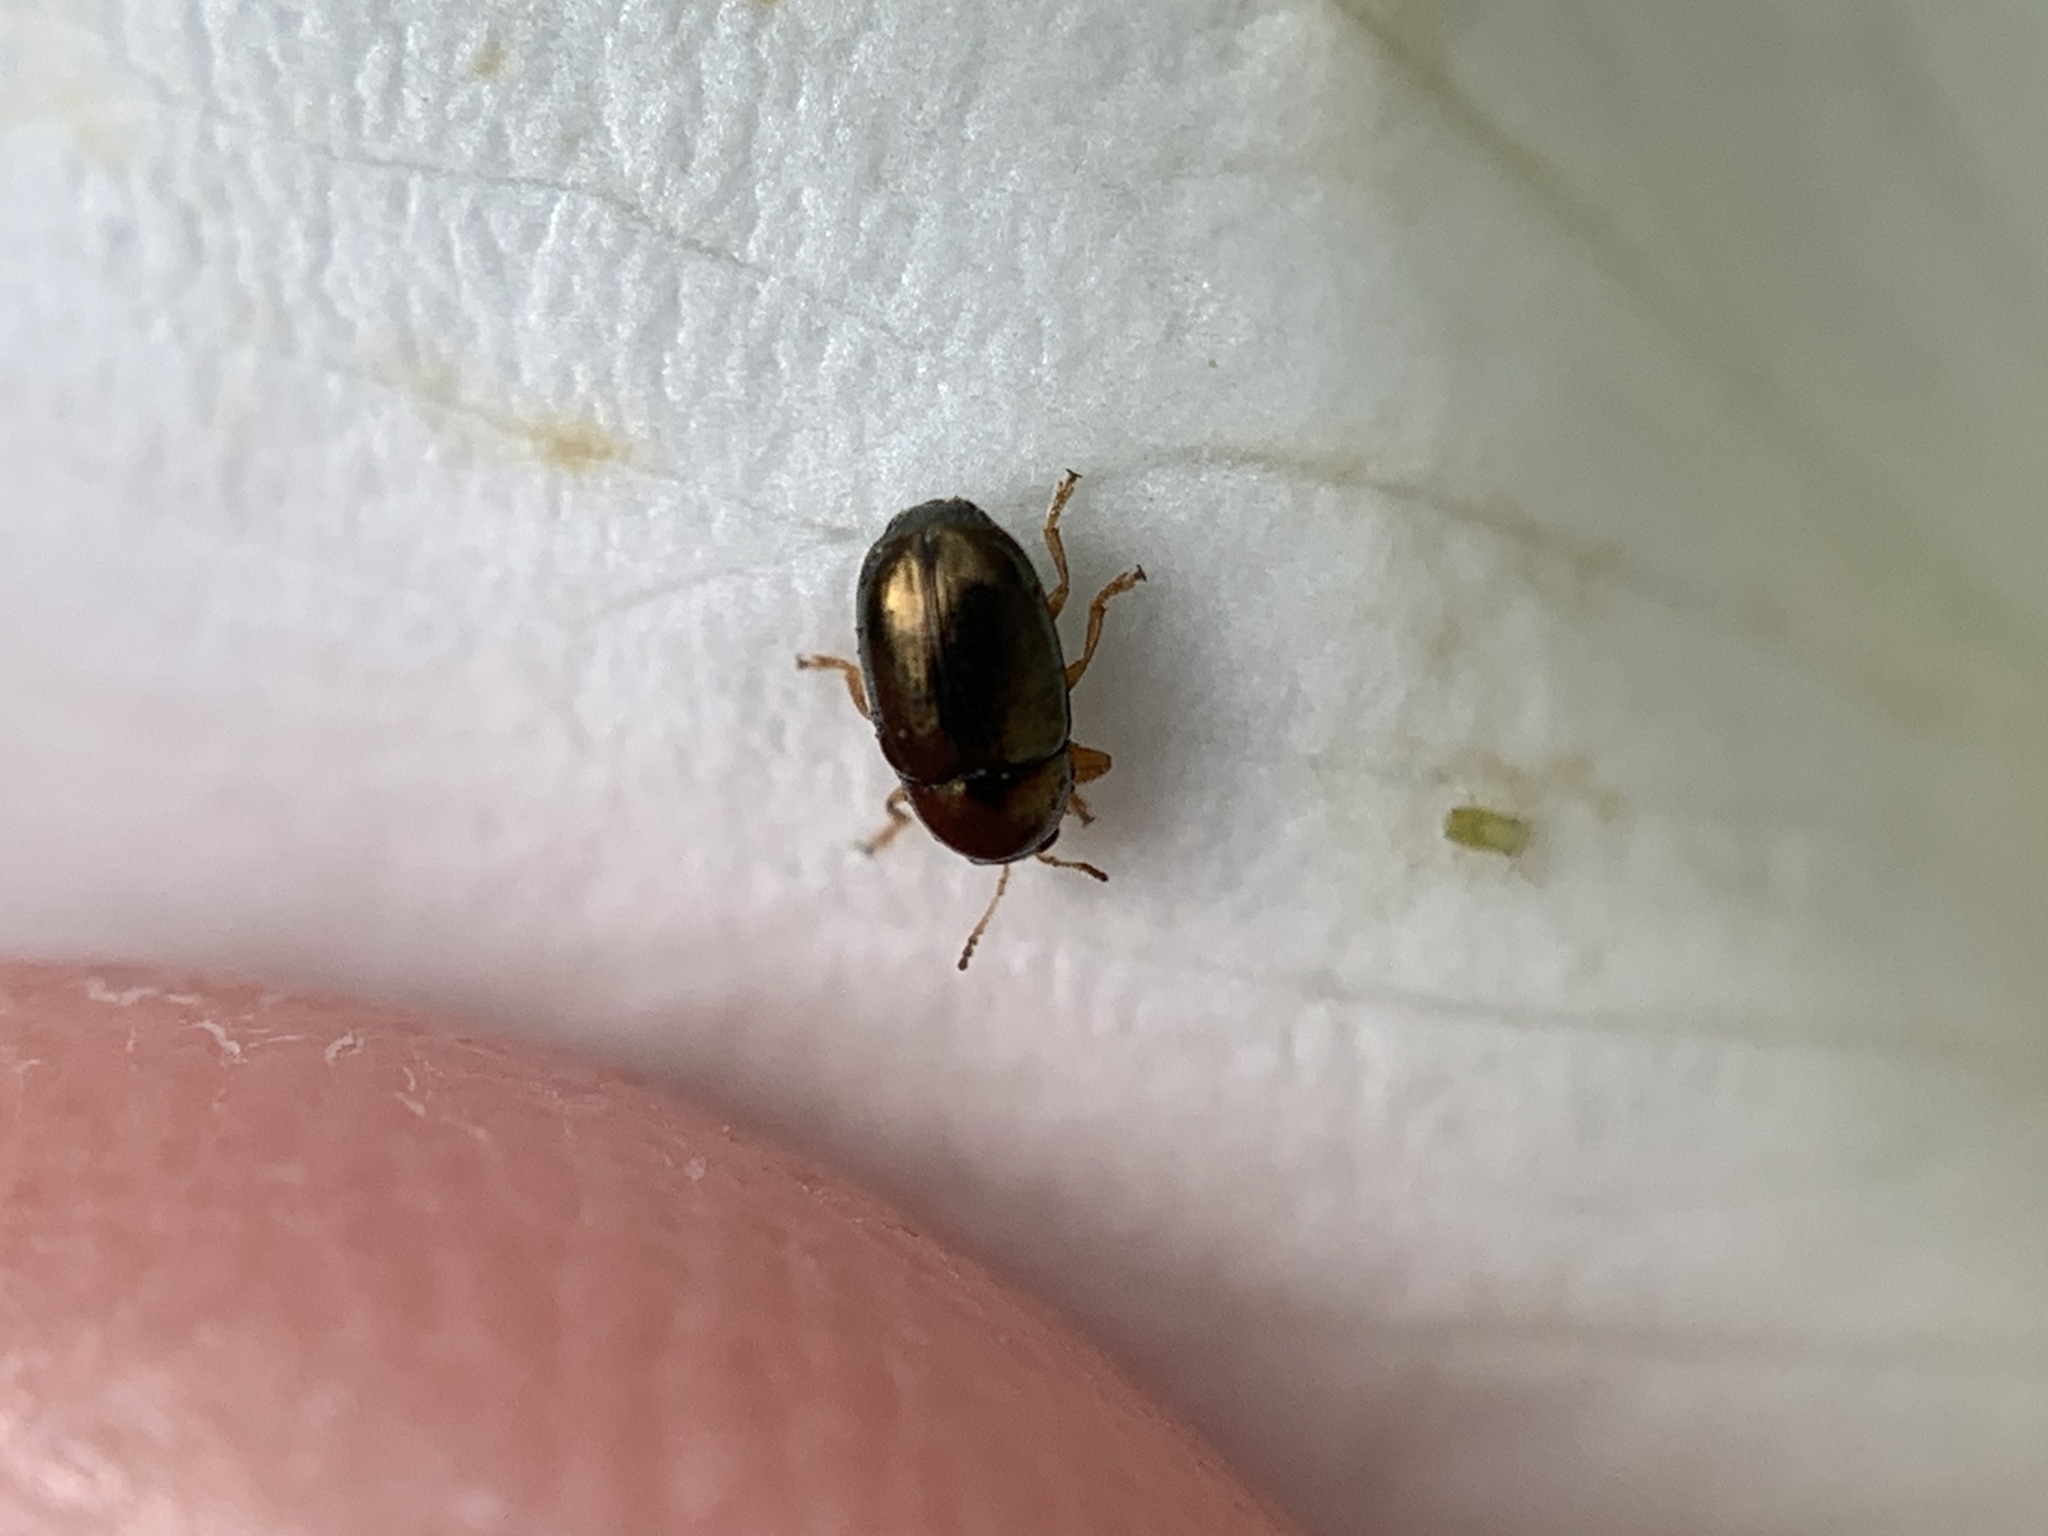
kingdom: Animalia
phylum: Arthropoda
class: Insecta
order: Coleoptera
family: Chrysomelidae
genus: Diachus
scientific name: Diachus auratus
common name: Bronze leaf beetle
